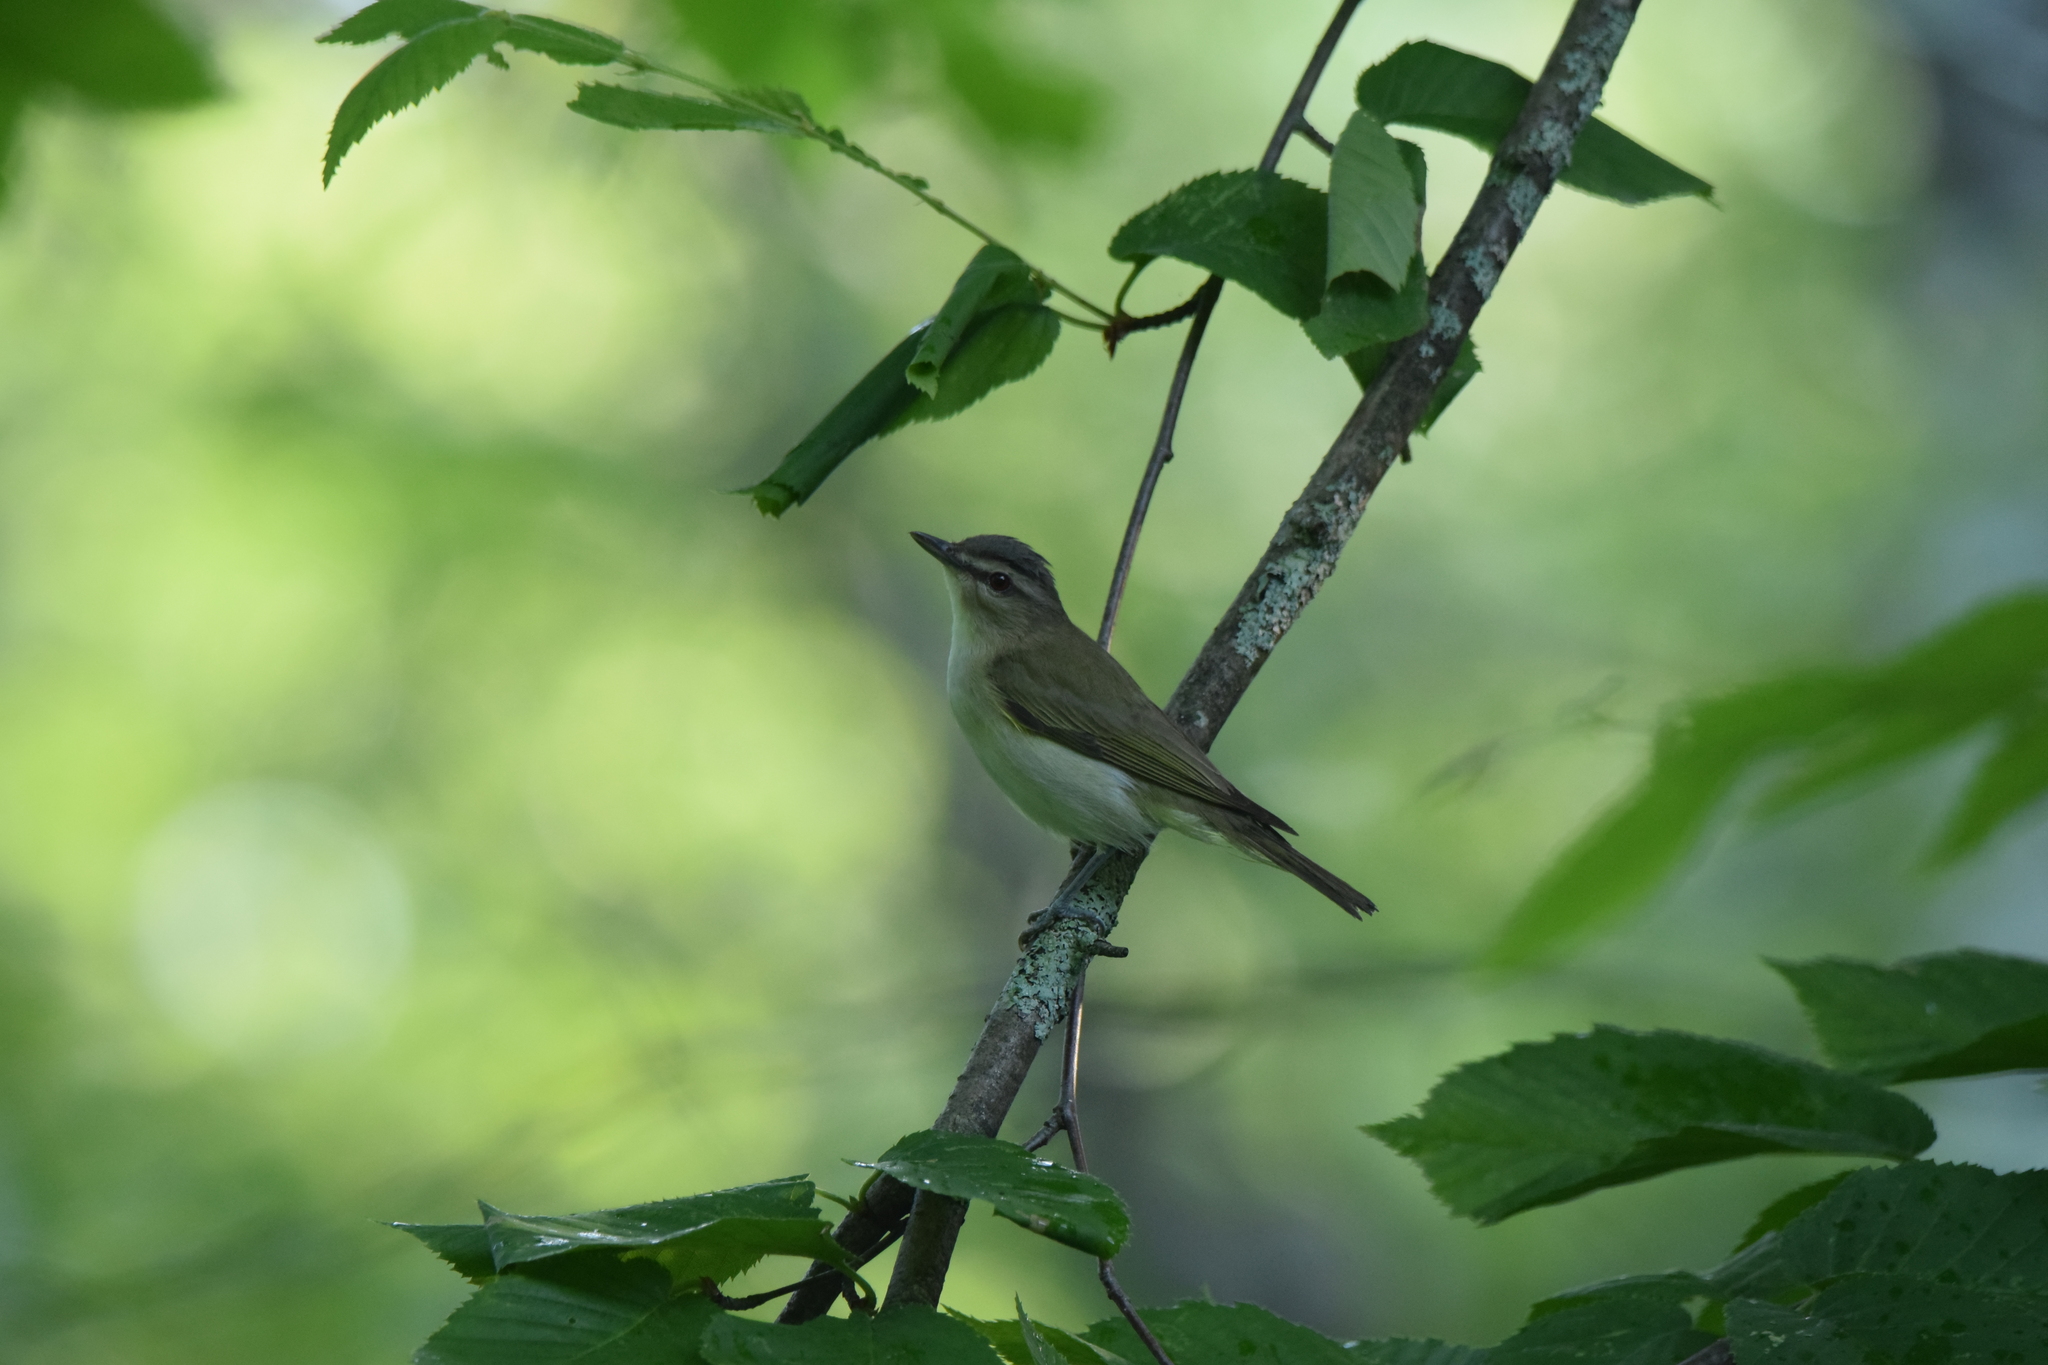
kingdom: Animalia
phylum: Chordata
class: Aves
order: Passeriformes
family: Vireonidae
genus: Vireo
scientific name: Vireo olivaceus
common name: Red-eyed vireo
